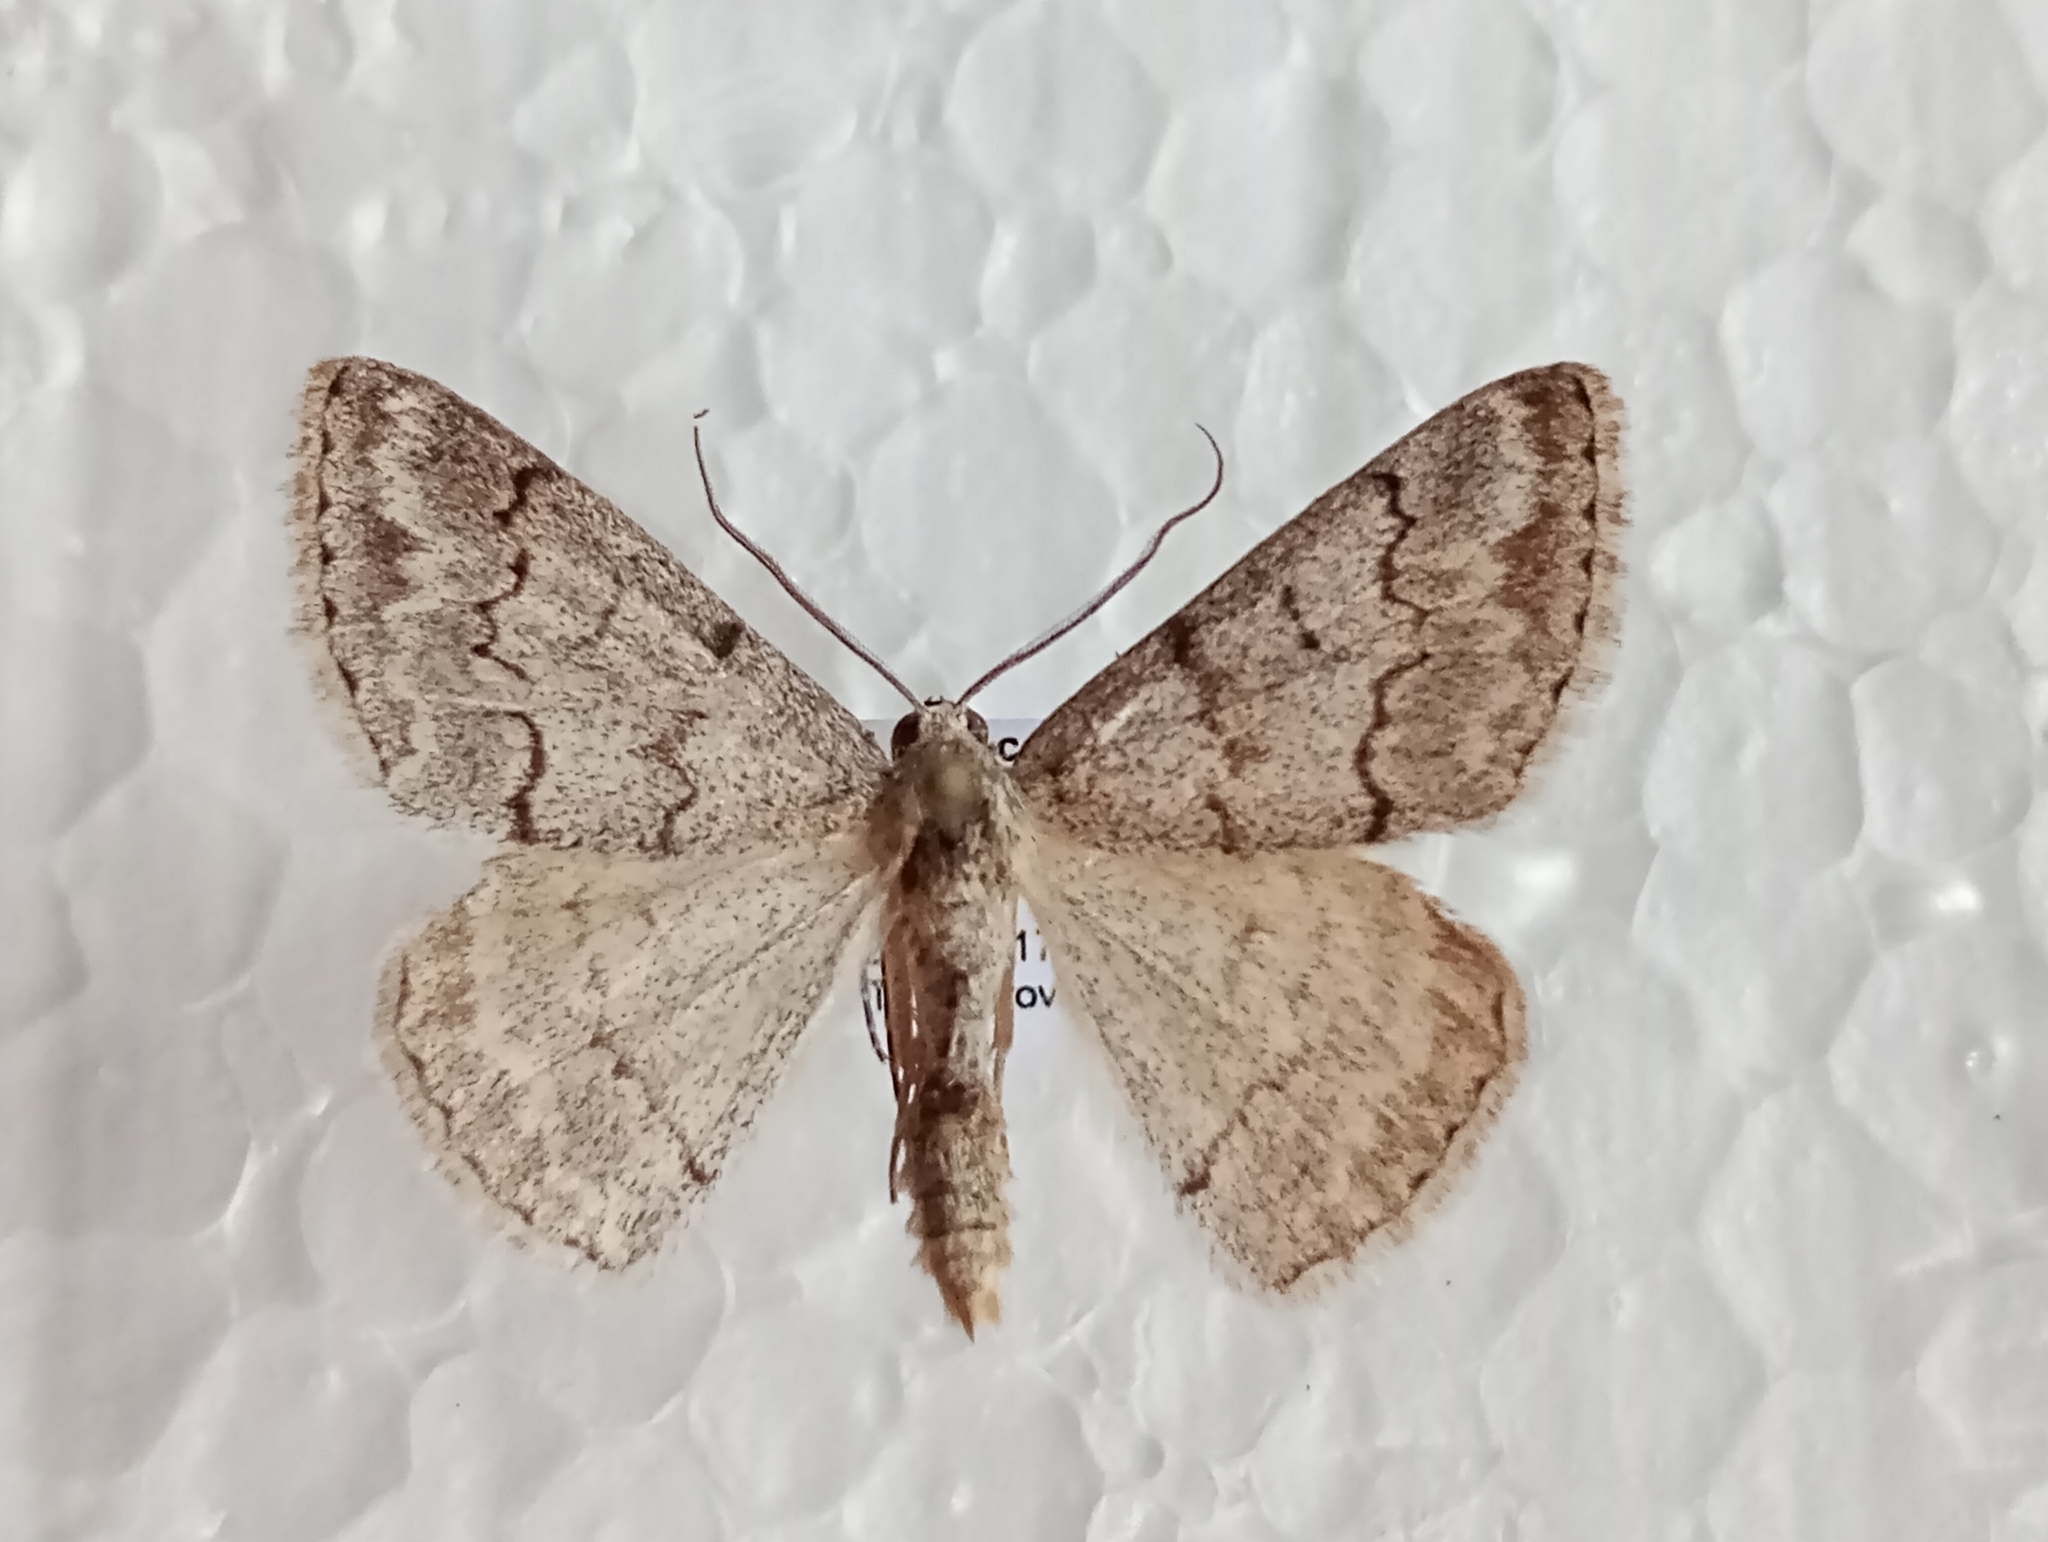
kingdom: Animalia
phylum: Arthropoda
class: Insecta
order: Lepidoptera
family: Geometridae
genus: Pseudoterpna
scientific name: Pseudoterpna coronillaria
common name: Jersey emerald
